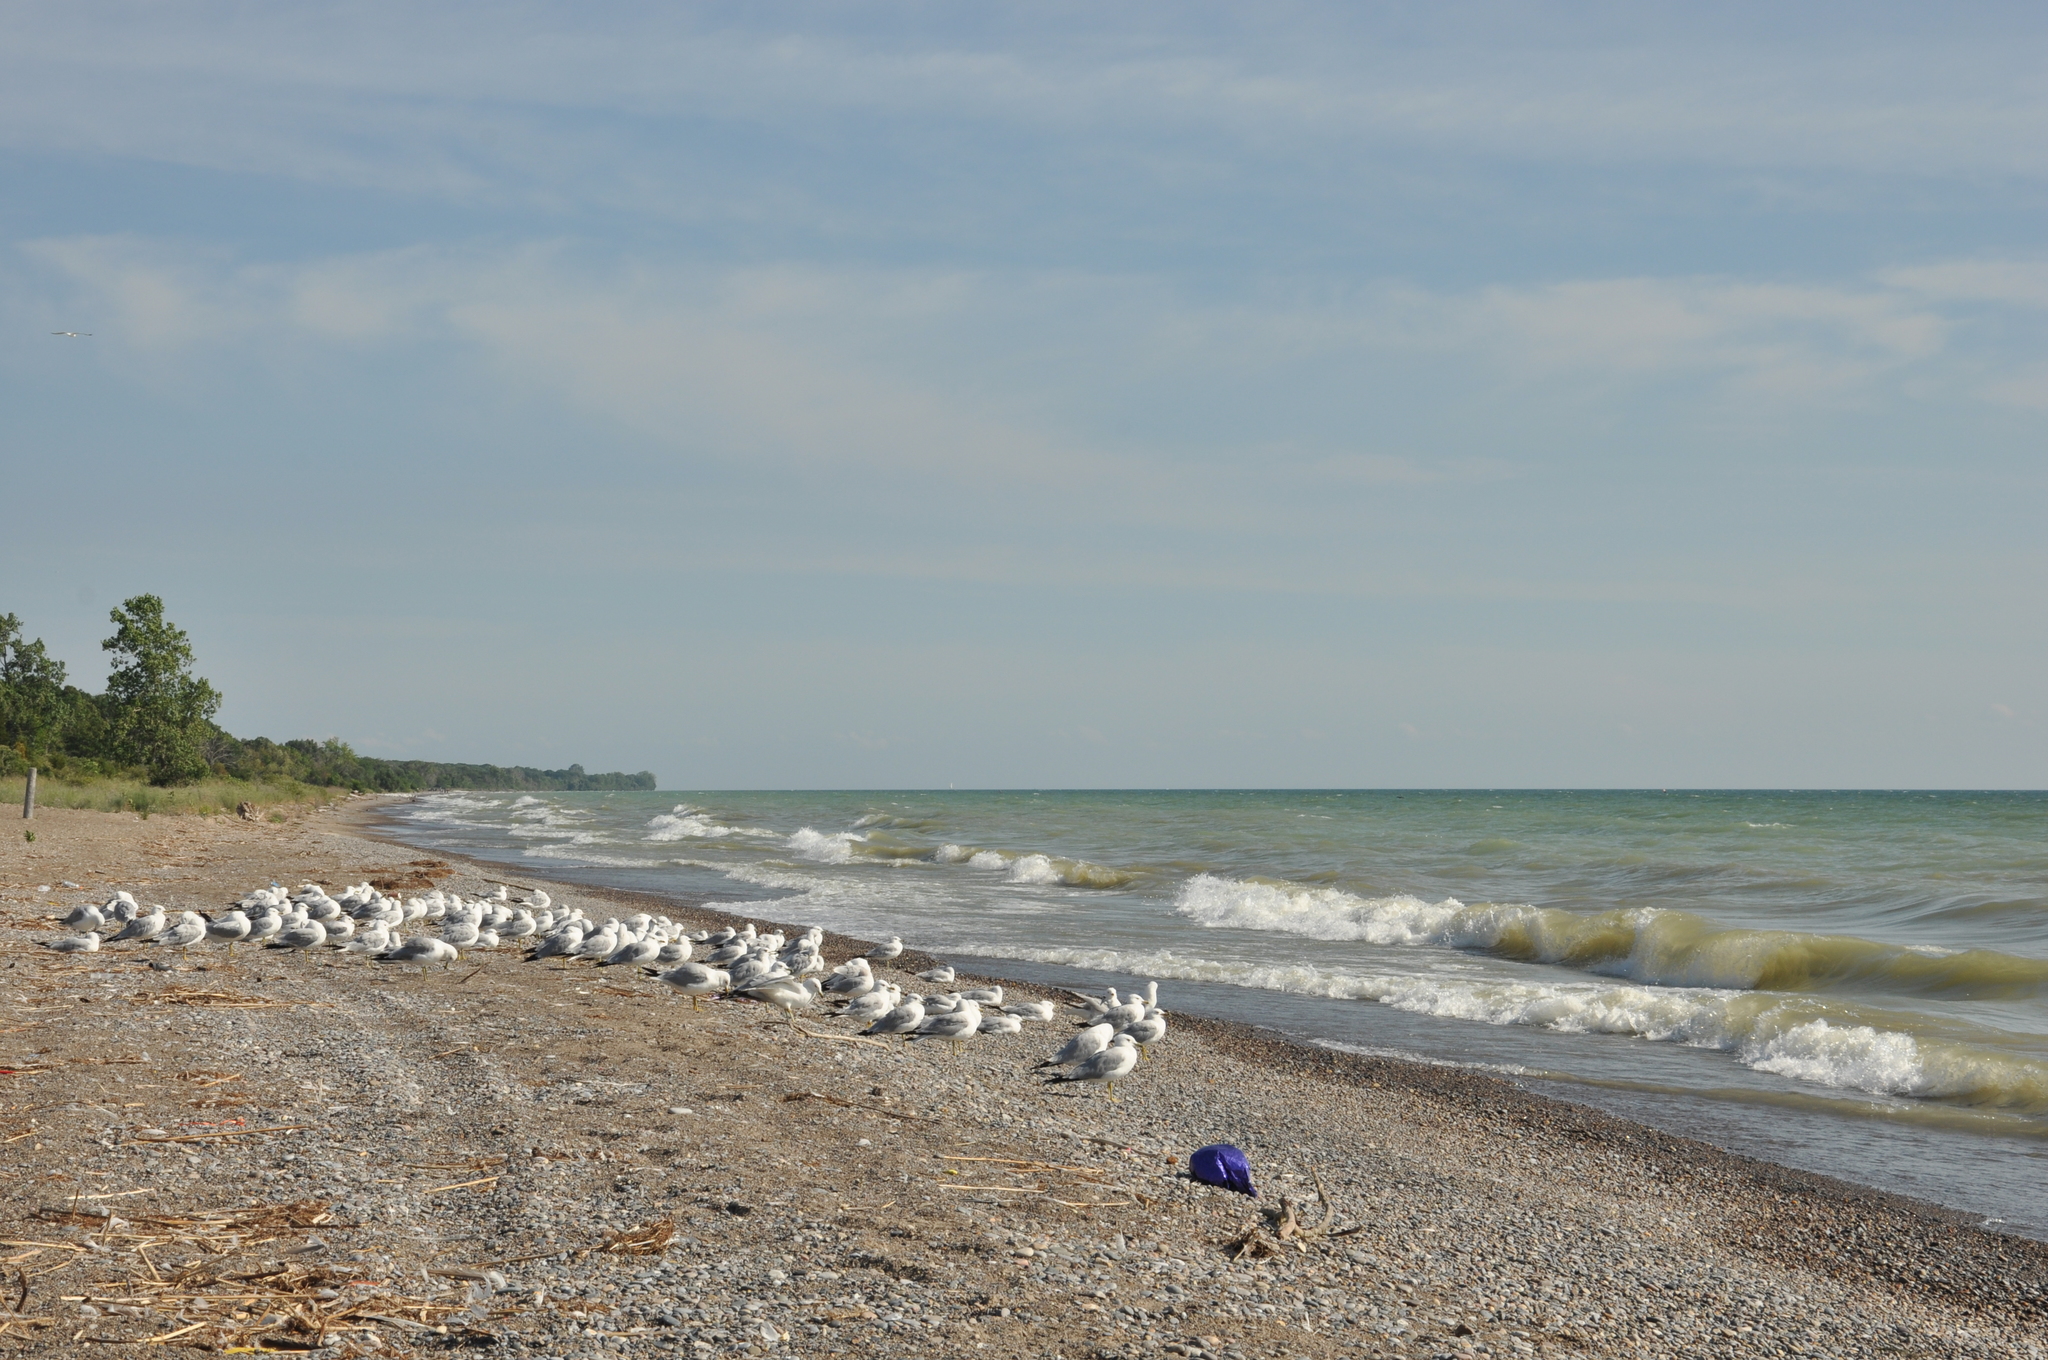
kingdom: Animalia
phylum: Chordata
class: Aves
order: Charadriiformes
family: Laridae
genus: Larus
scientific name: Larus delawarensis
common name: Ring-billed gull
